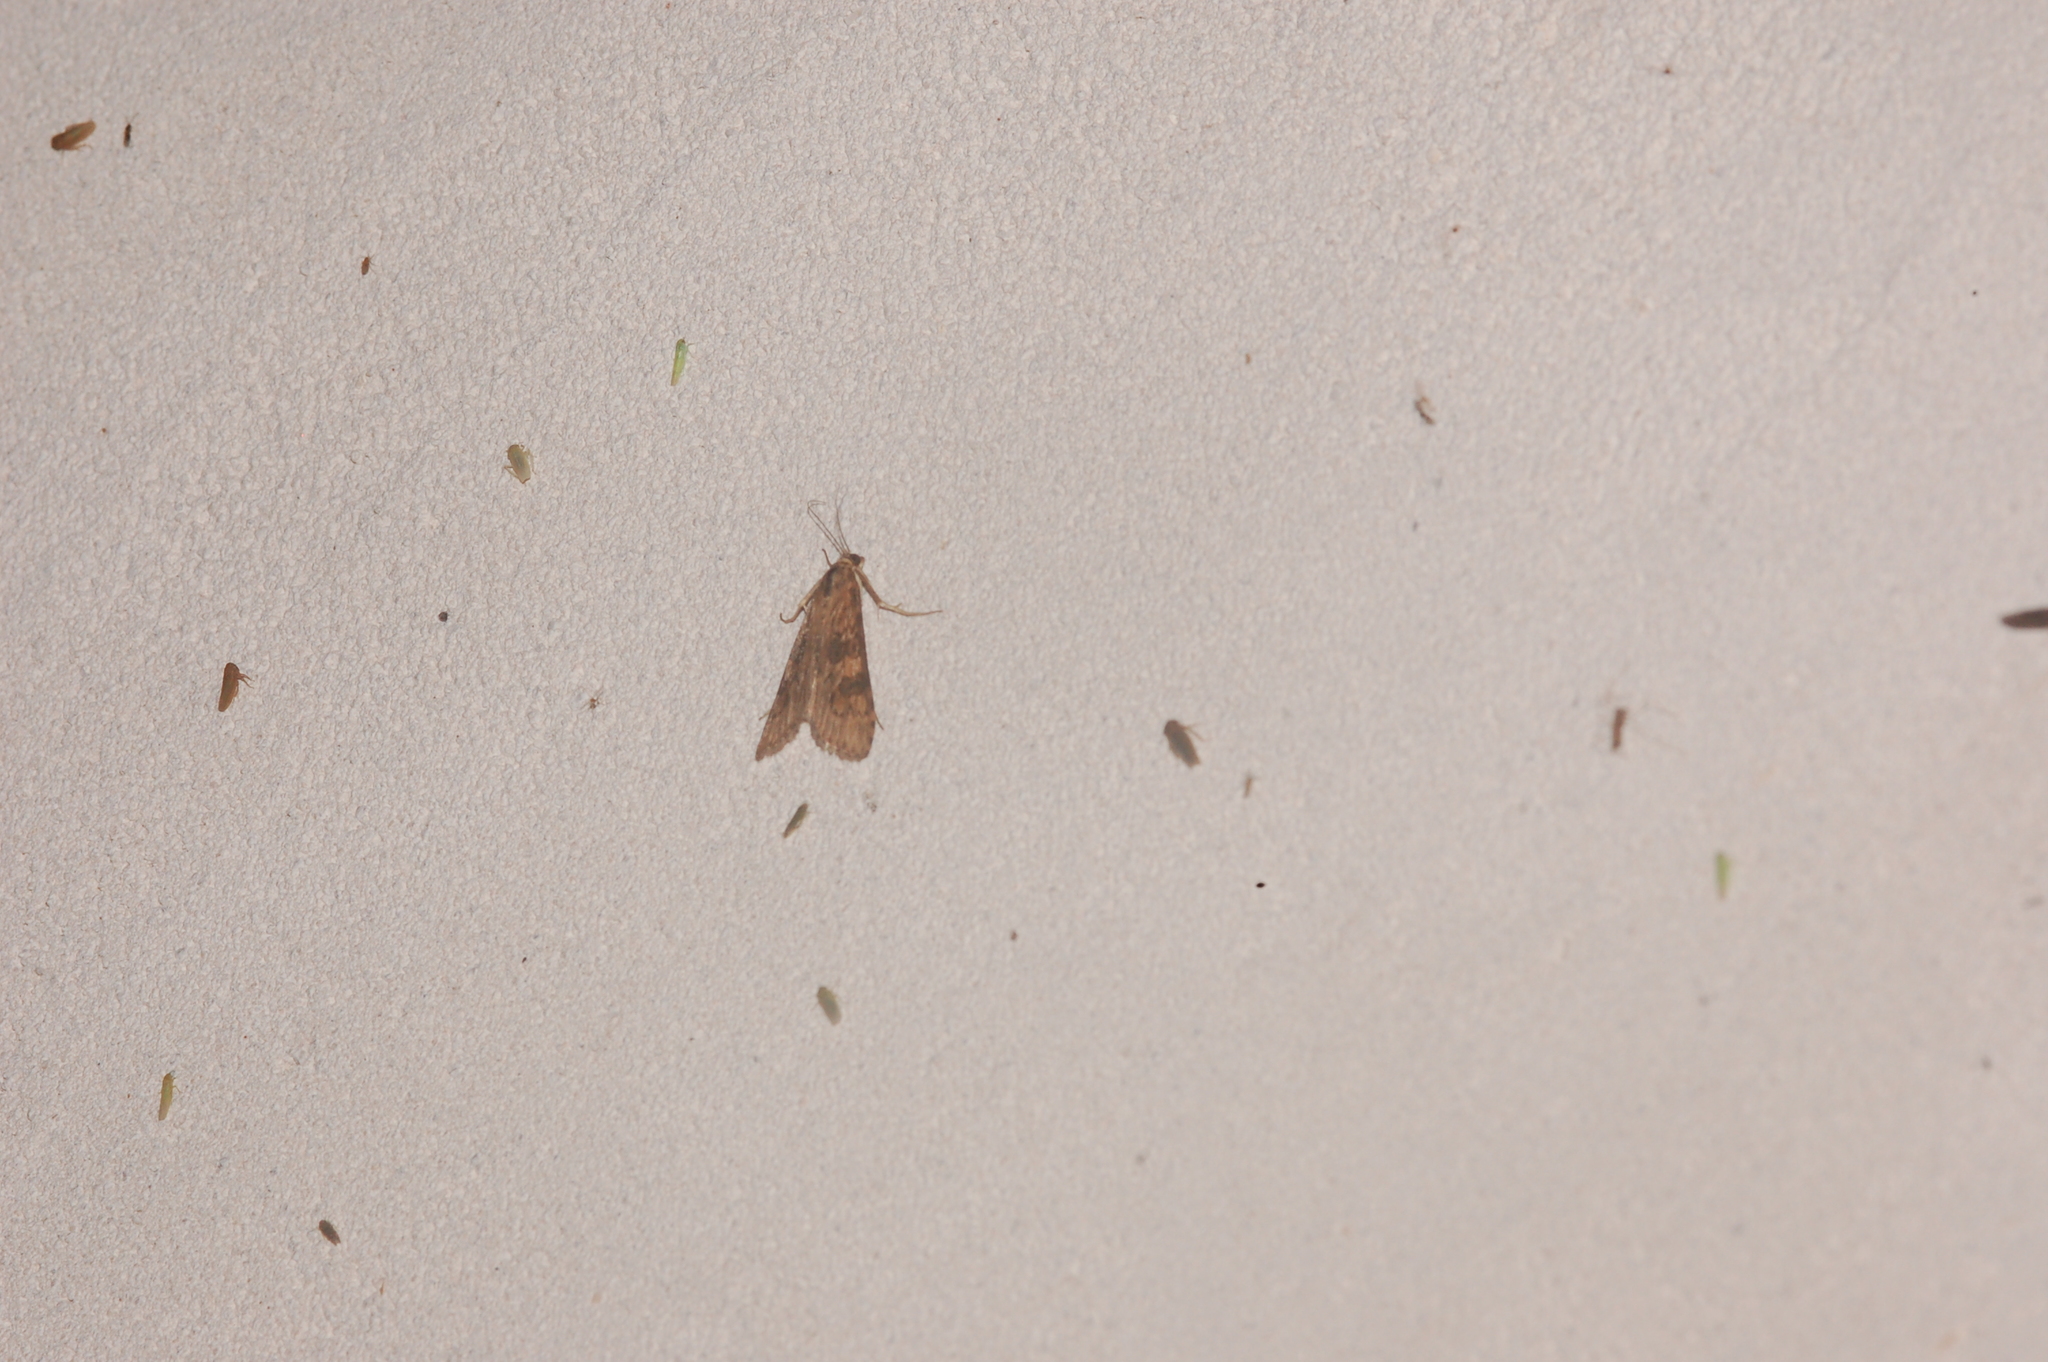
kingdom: Animalia
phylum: Arthropoda
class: Insecta
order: Lepidoptera
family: Crambidae
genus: Nomophila
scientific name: Nomophila nearctica
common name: American rush veneer
